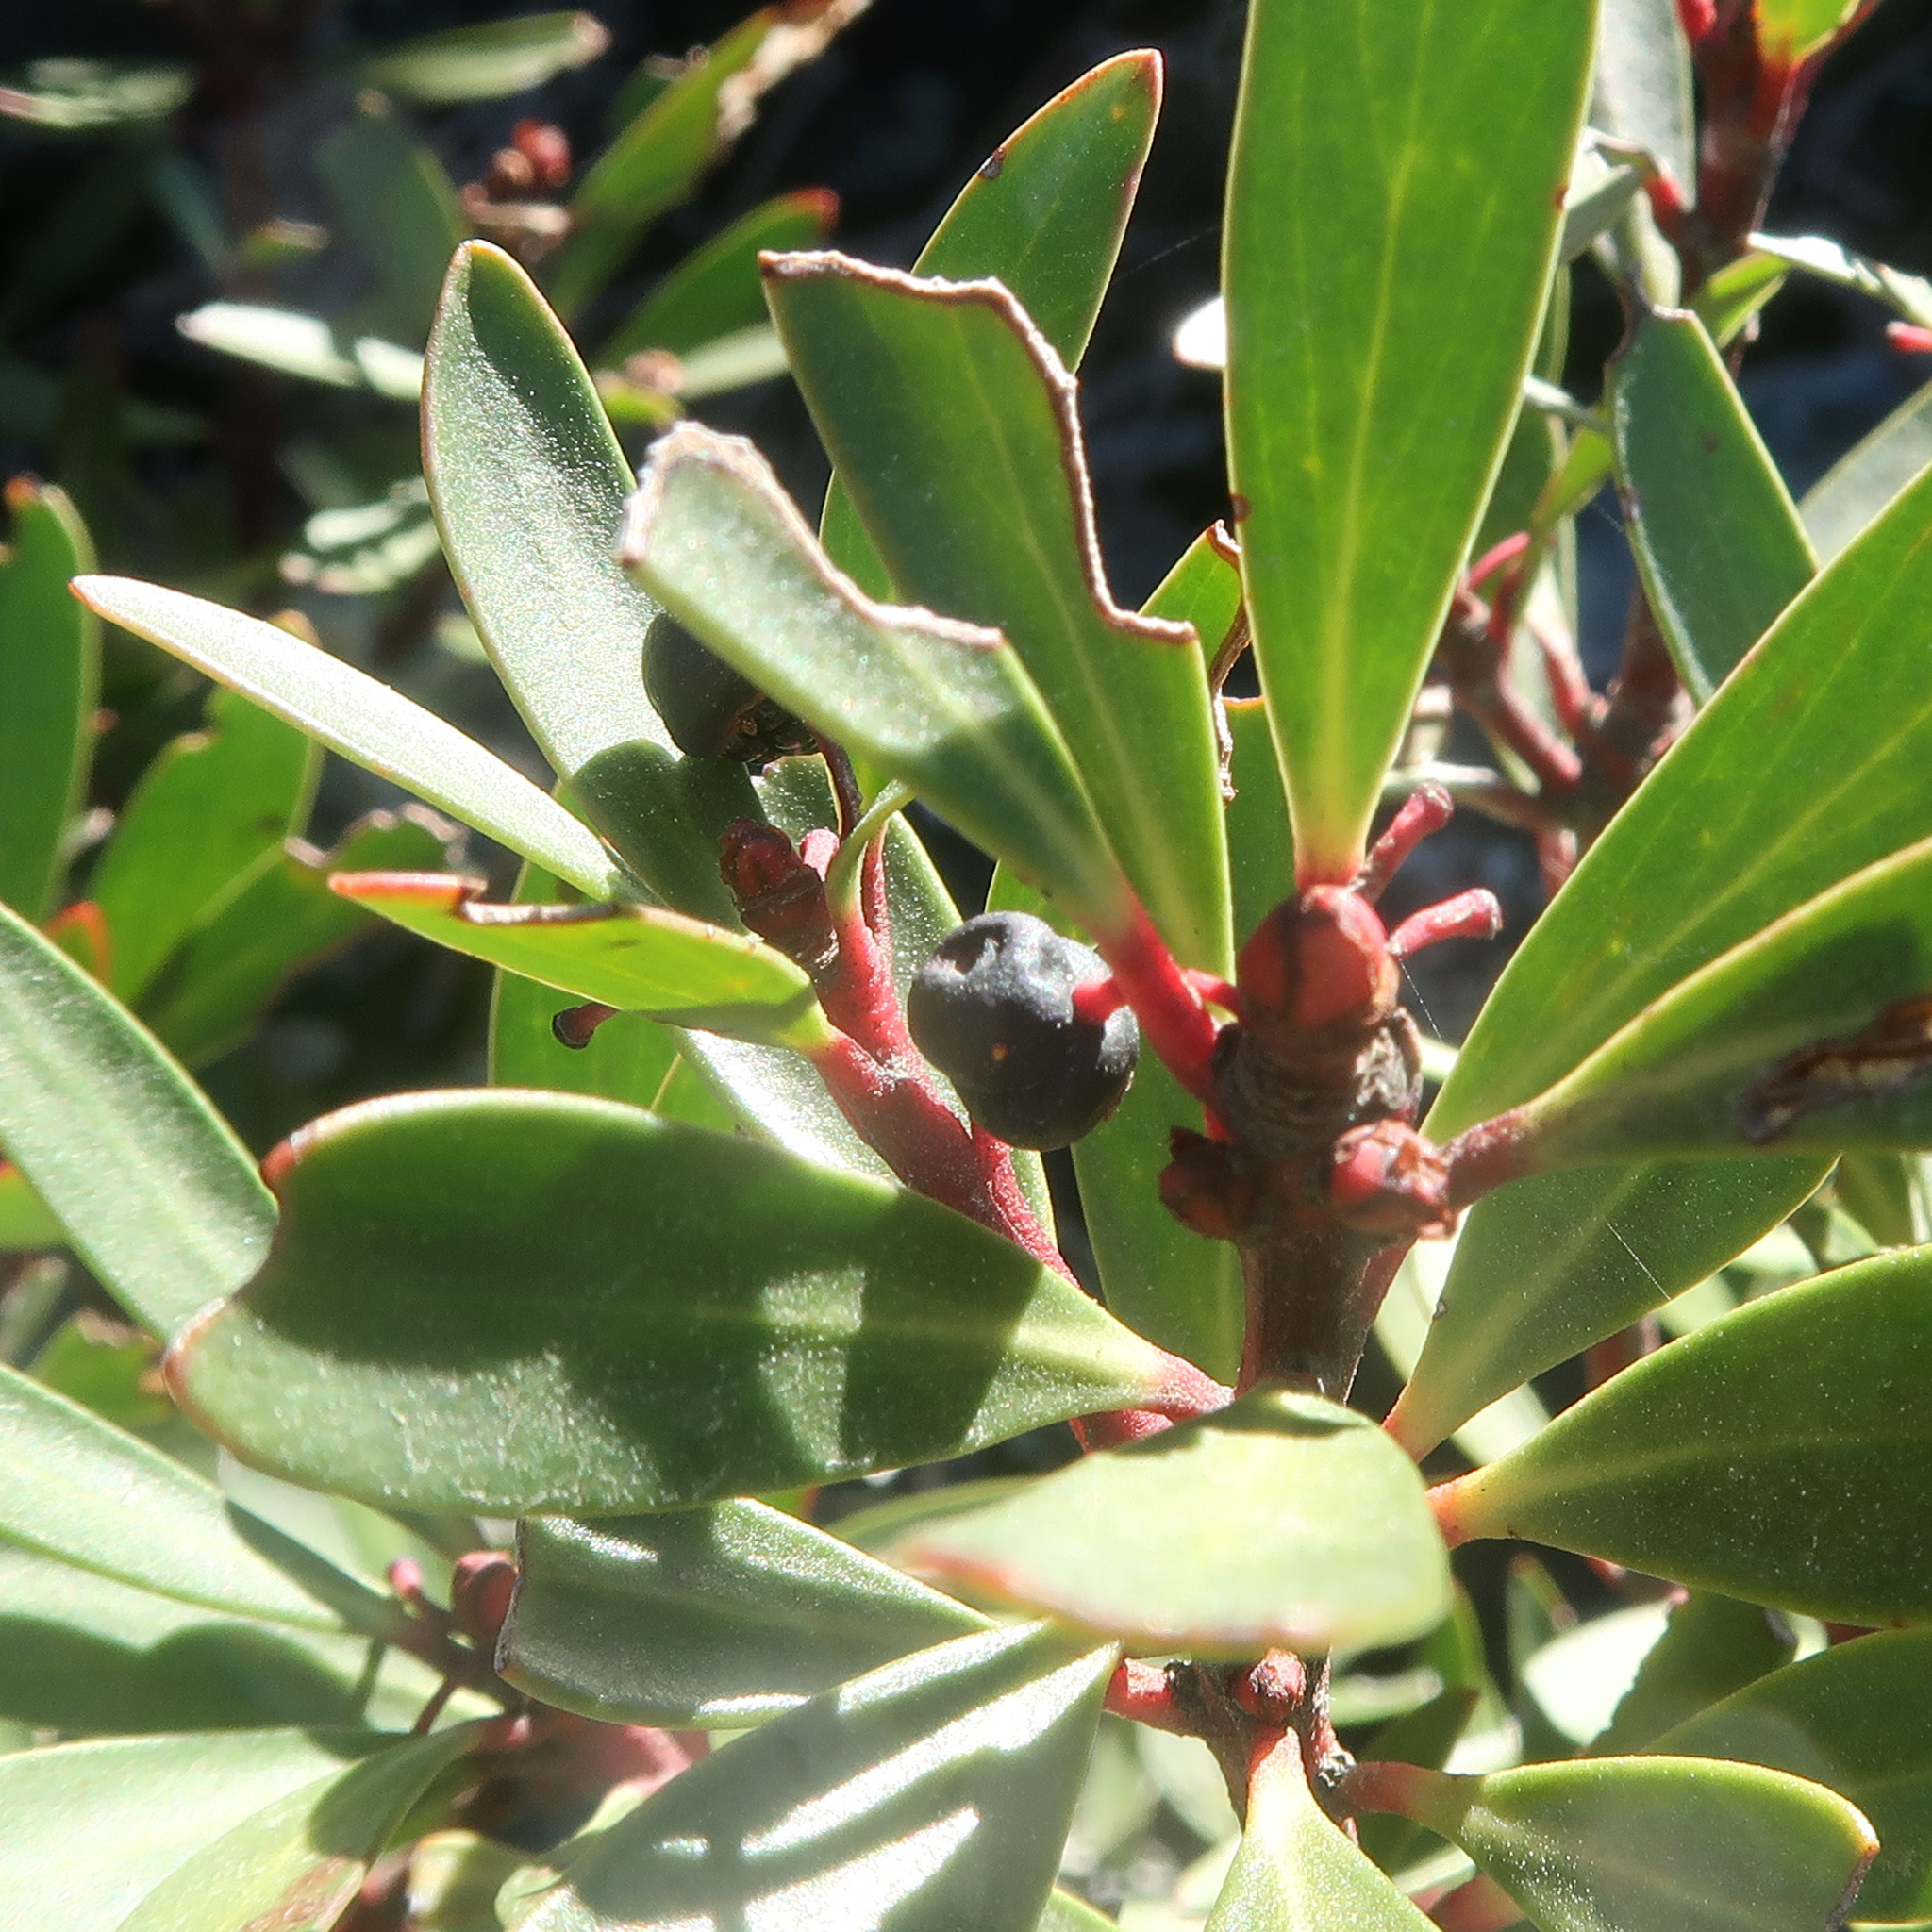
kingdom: Plantae
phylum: Tracheophyta
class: Magnoliopsida
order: Canellales
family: Winteraceae
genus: Drimys
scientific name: Drimys aromatica
